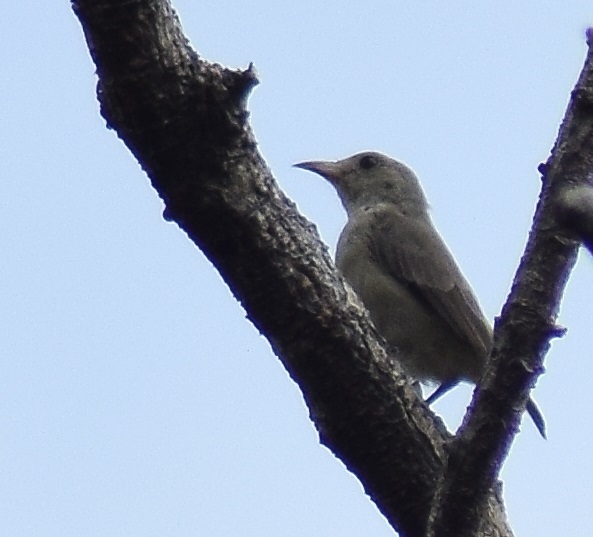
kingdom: Animalia
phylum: Chordata
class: Aves
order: Passeriformes
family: Dicaeidae
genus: Dicaeum
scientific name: Dicaeum erythrorhynchos
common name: Pale-billed flowerpecker
